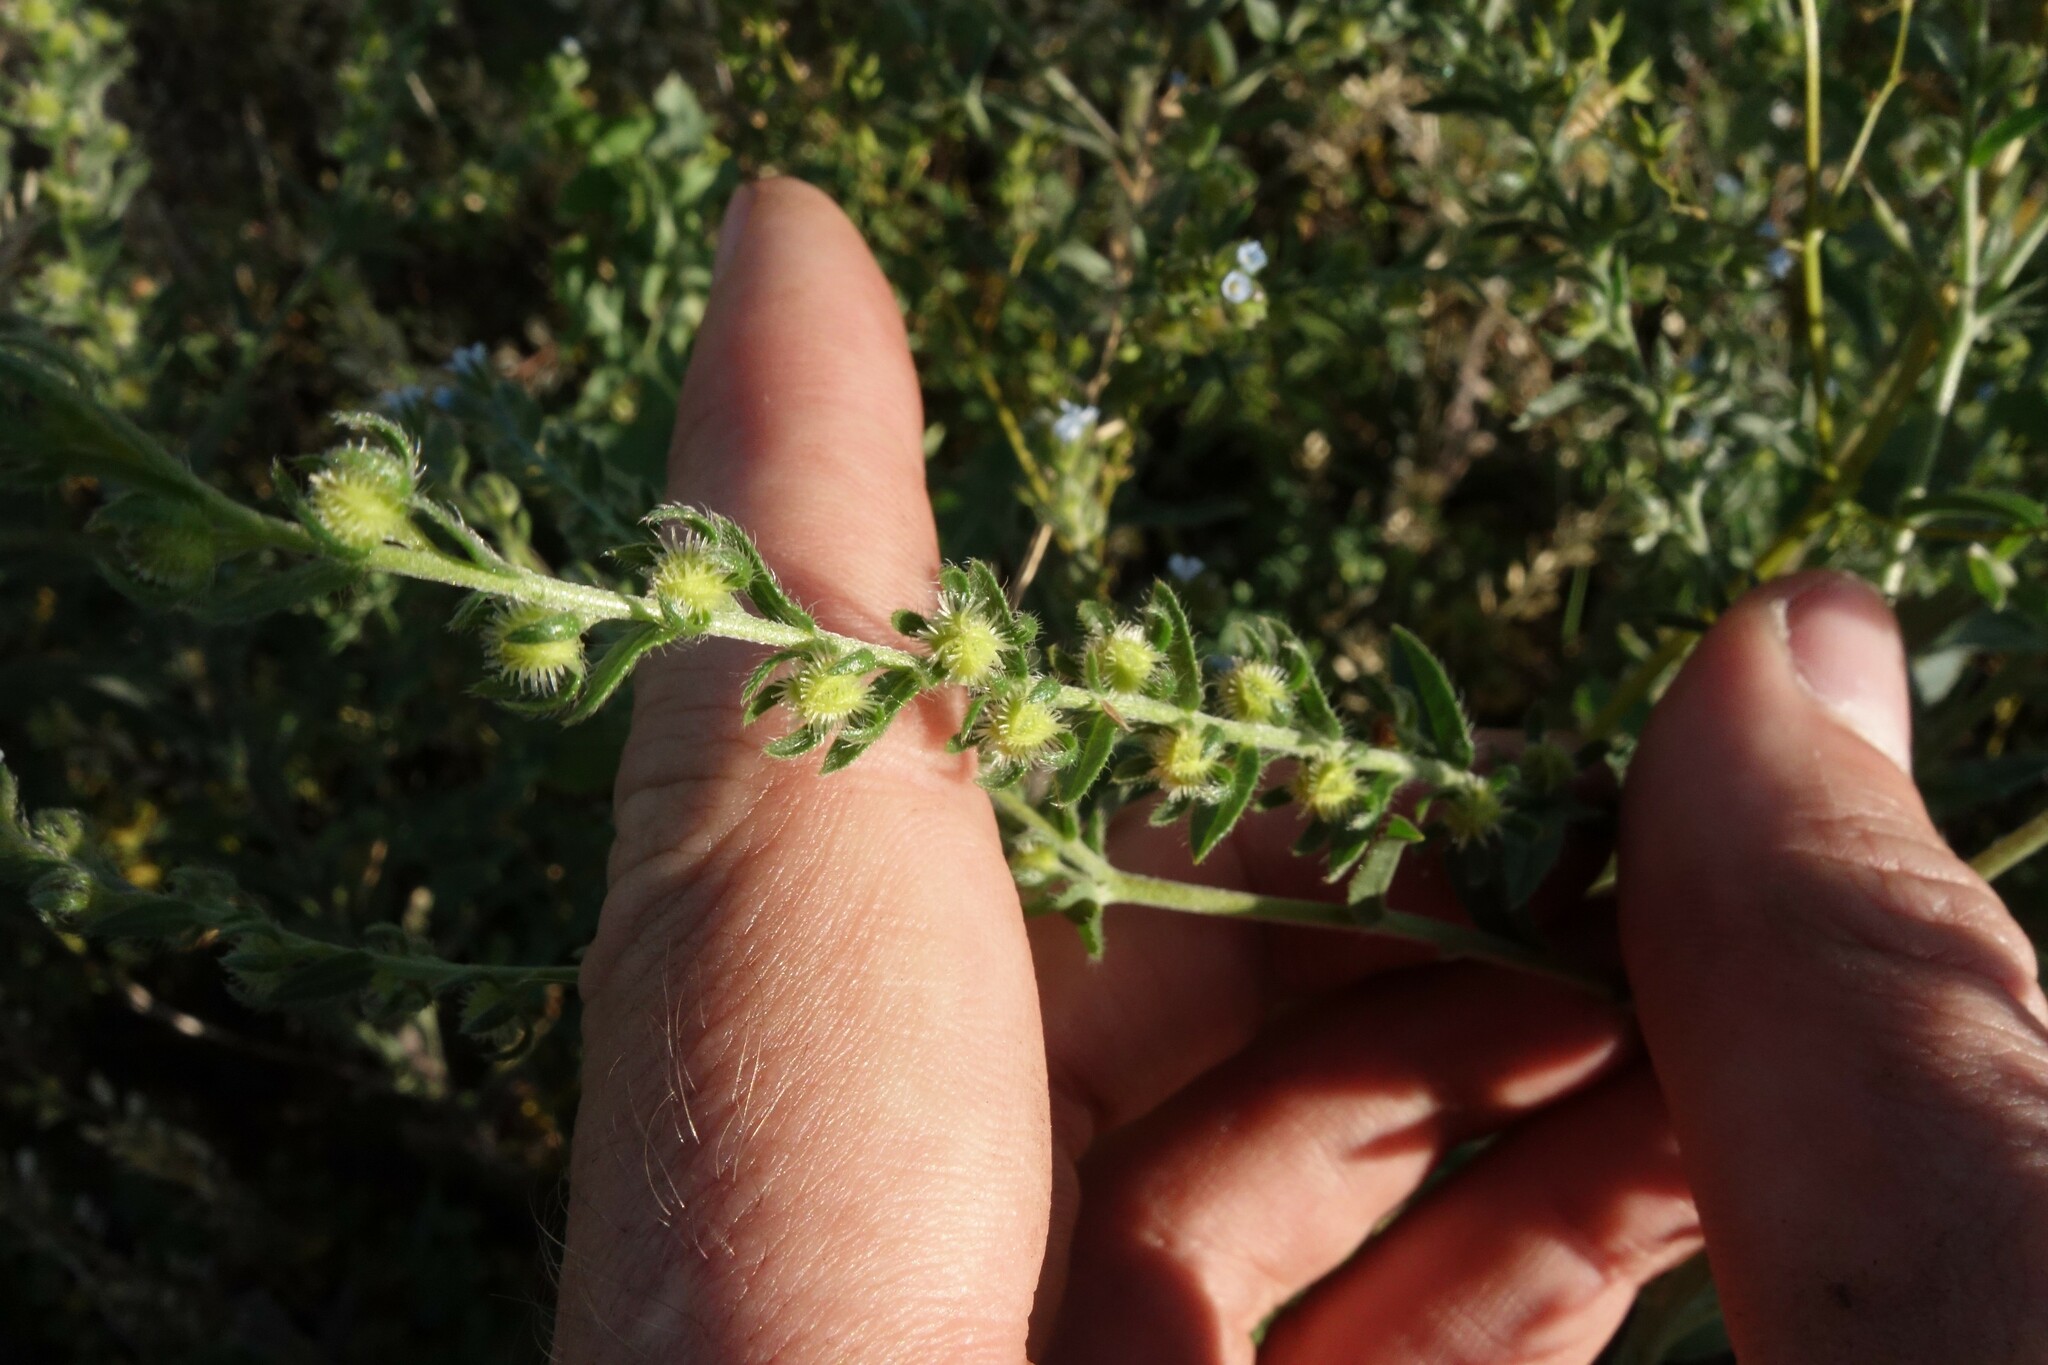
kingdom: Plantae
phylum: Tracheophyta
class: Magnoliopsida
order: Boraginales
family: Boraginaceae
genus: Lappula
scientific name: Lappula squarrosa
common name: European stickseed
